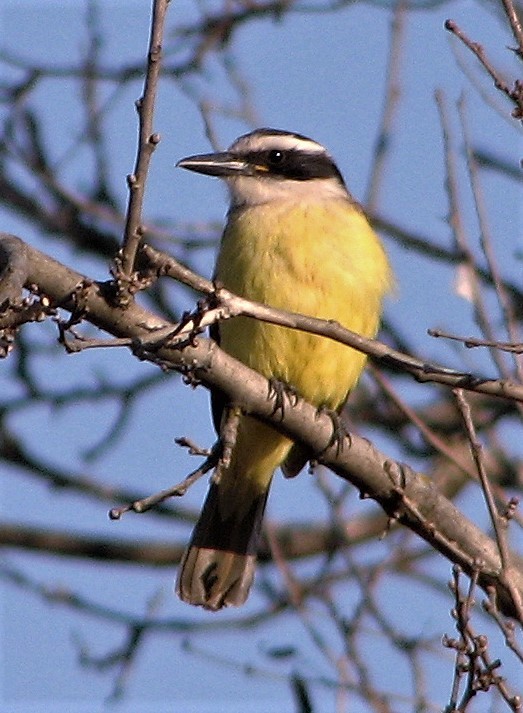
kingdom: Animalia
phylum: Chordata
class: Aves
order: Passeriformes
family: Tyrannidae
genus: Pitangus
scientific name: Pitangus sulphuratus
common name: Great kiskadee
